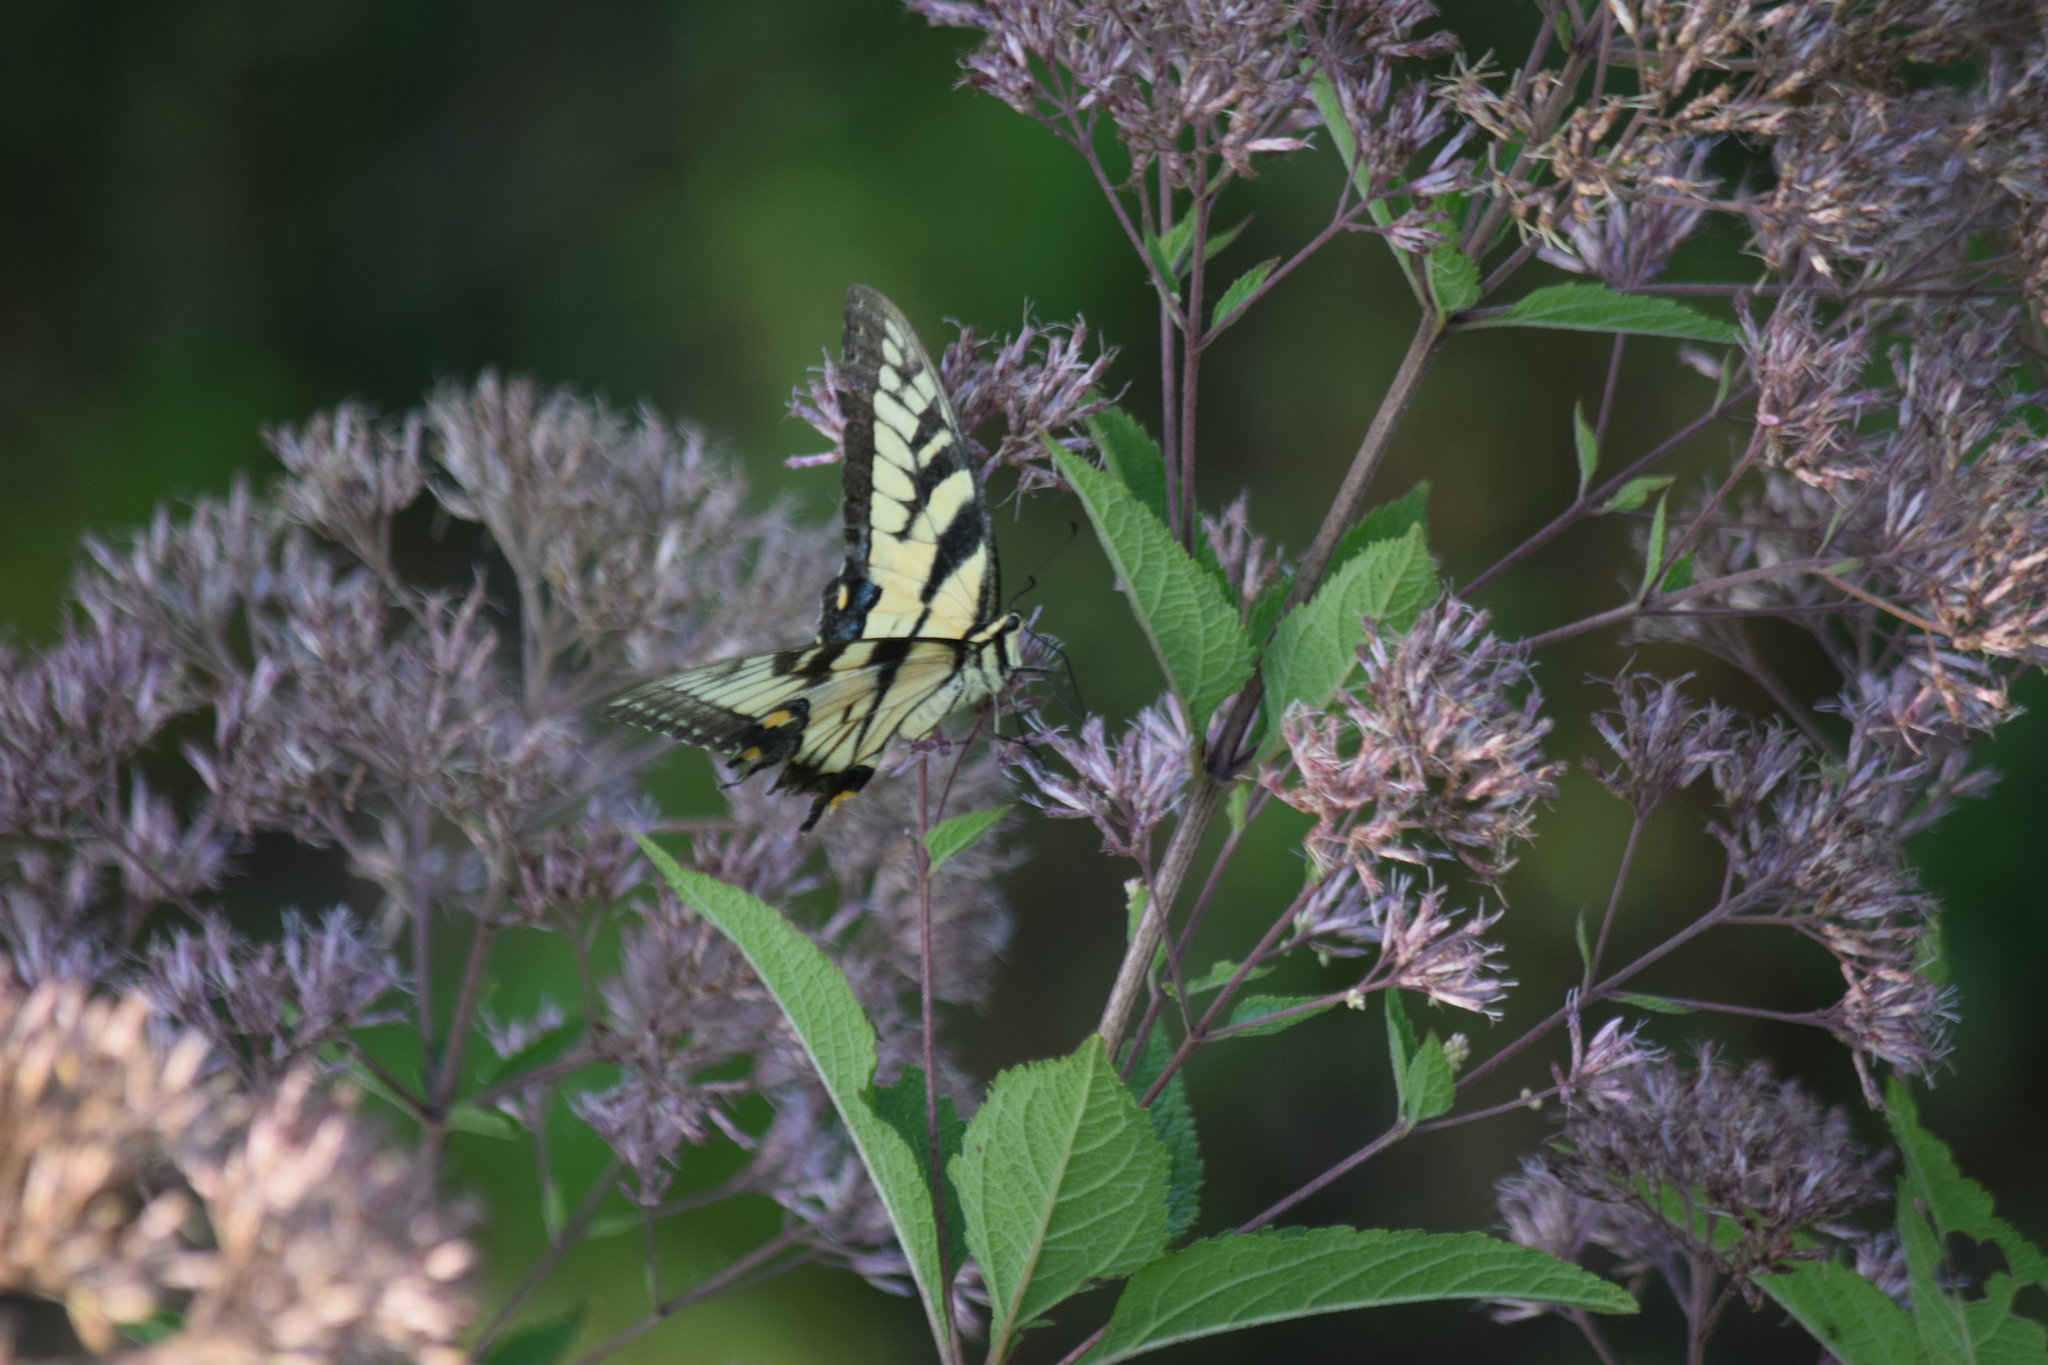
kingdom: Animalia
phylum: Arthropoda
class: Insecta
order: Lepidoptera
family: Papilionidae
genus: Papilio
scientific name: Papilio glaucus
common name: Tiger swallowtail
